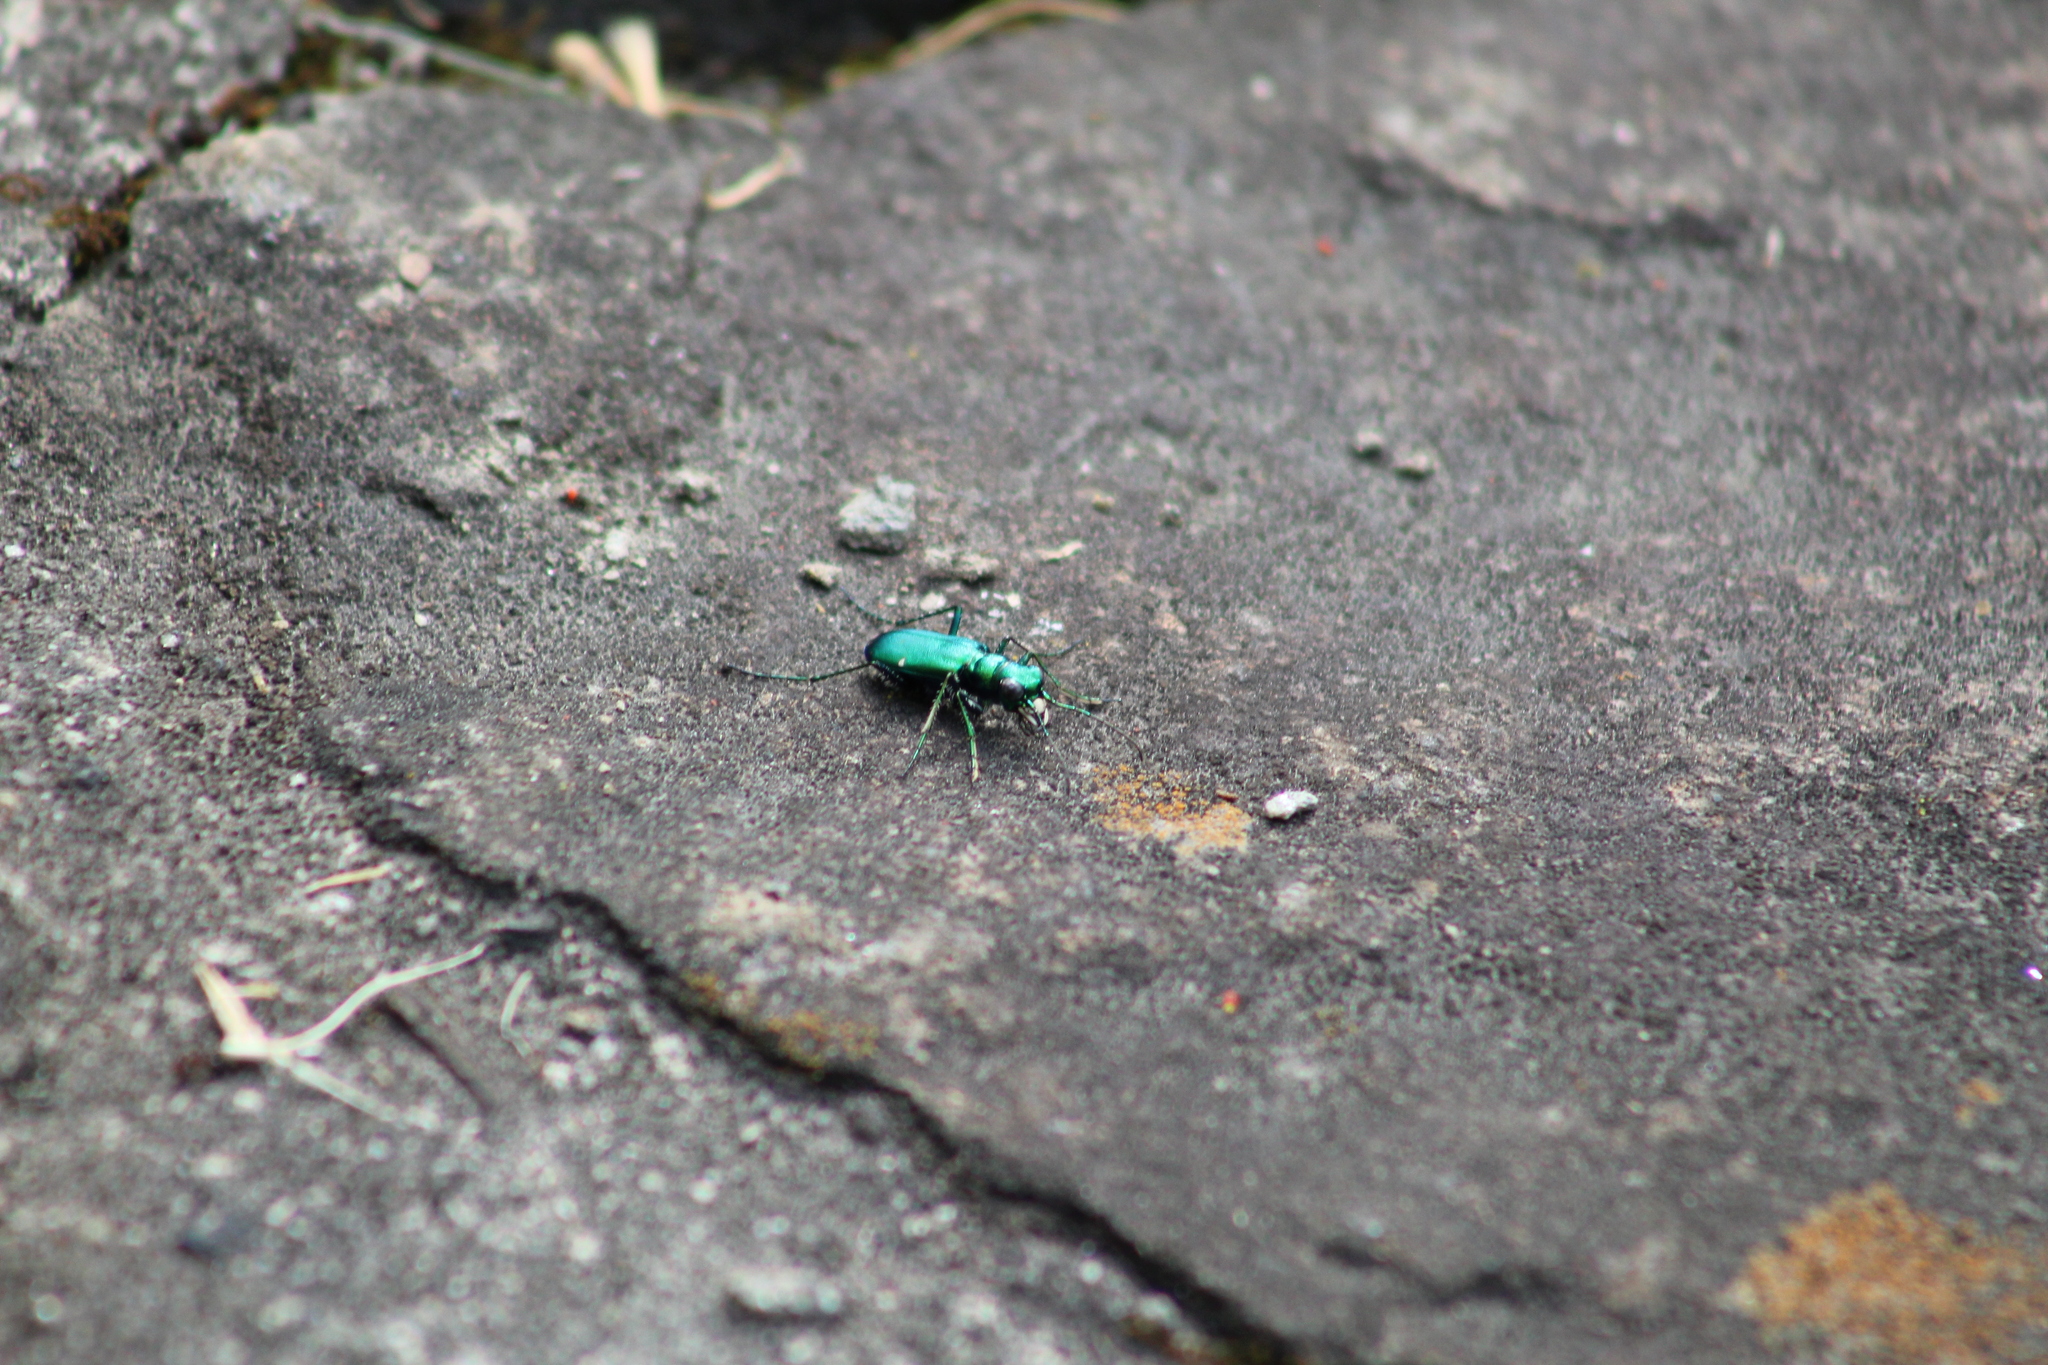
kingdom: Animalia
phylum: Arthropoda
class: Insecta
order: Coleoptera
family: Carabidae
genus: Cicindela
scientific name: Cicindela sexguttata
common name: Six-spotted tiger beetle
